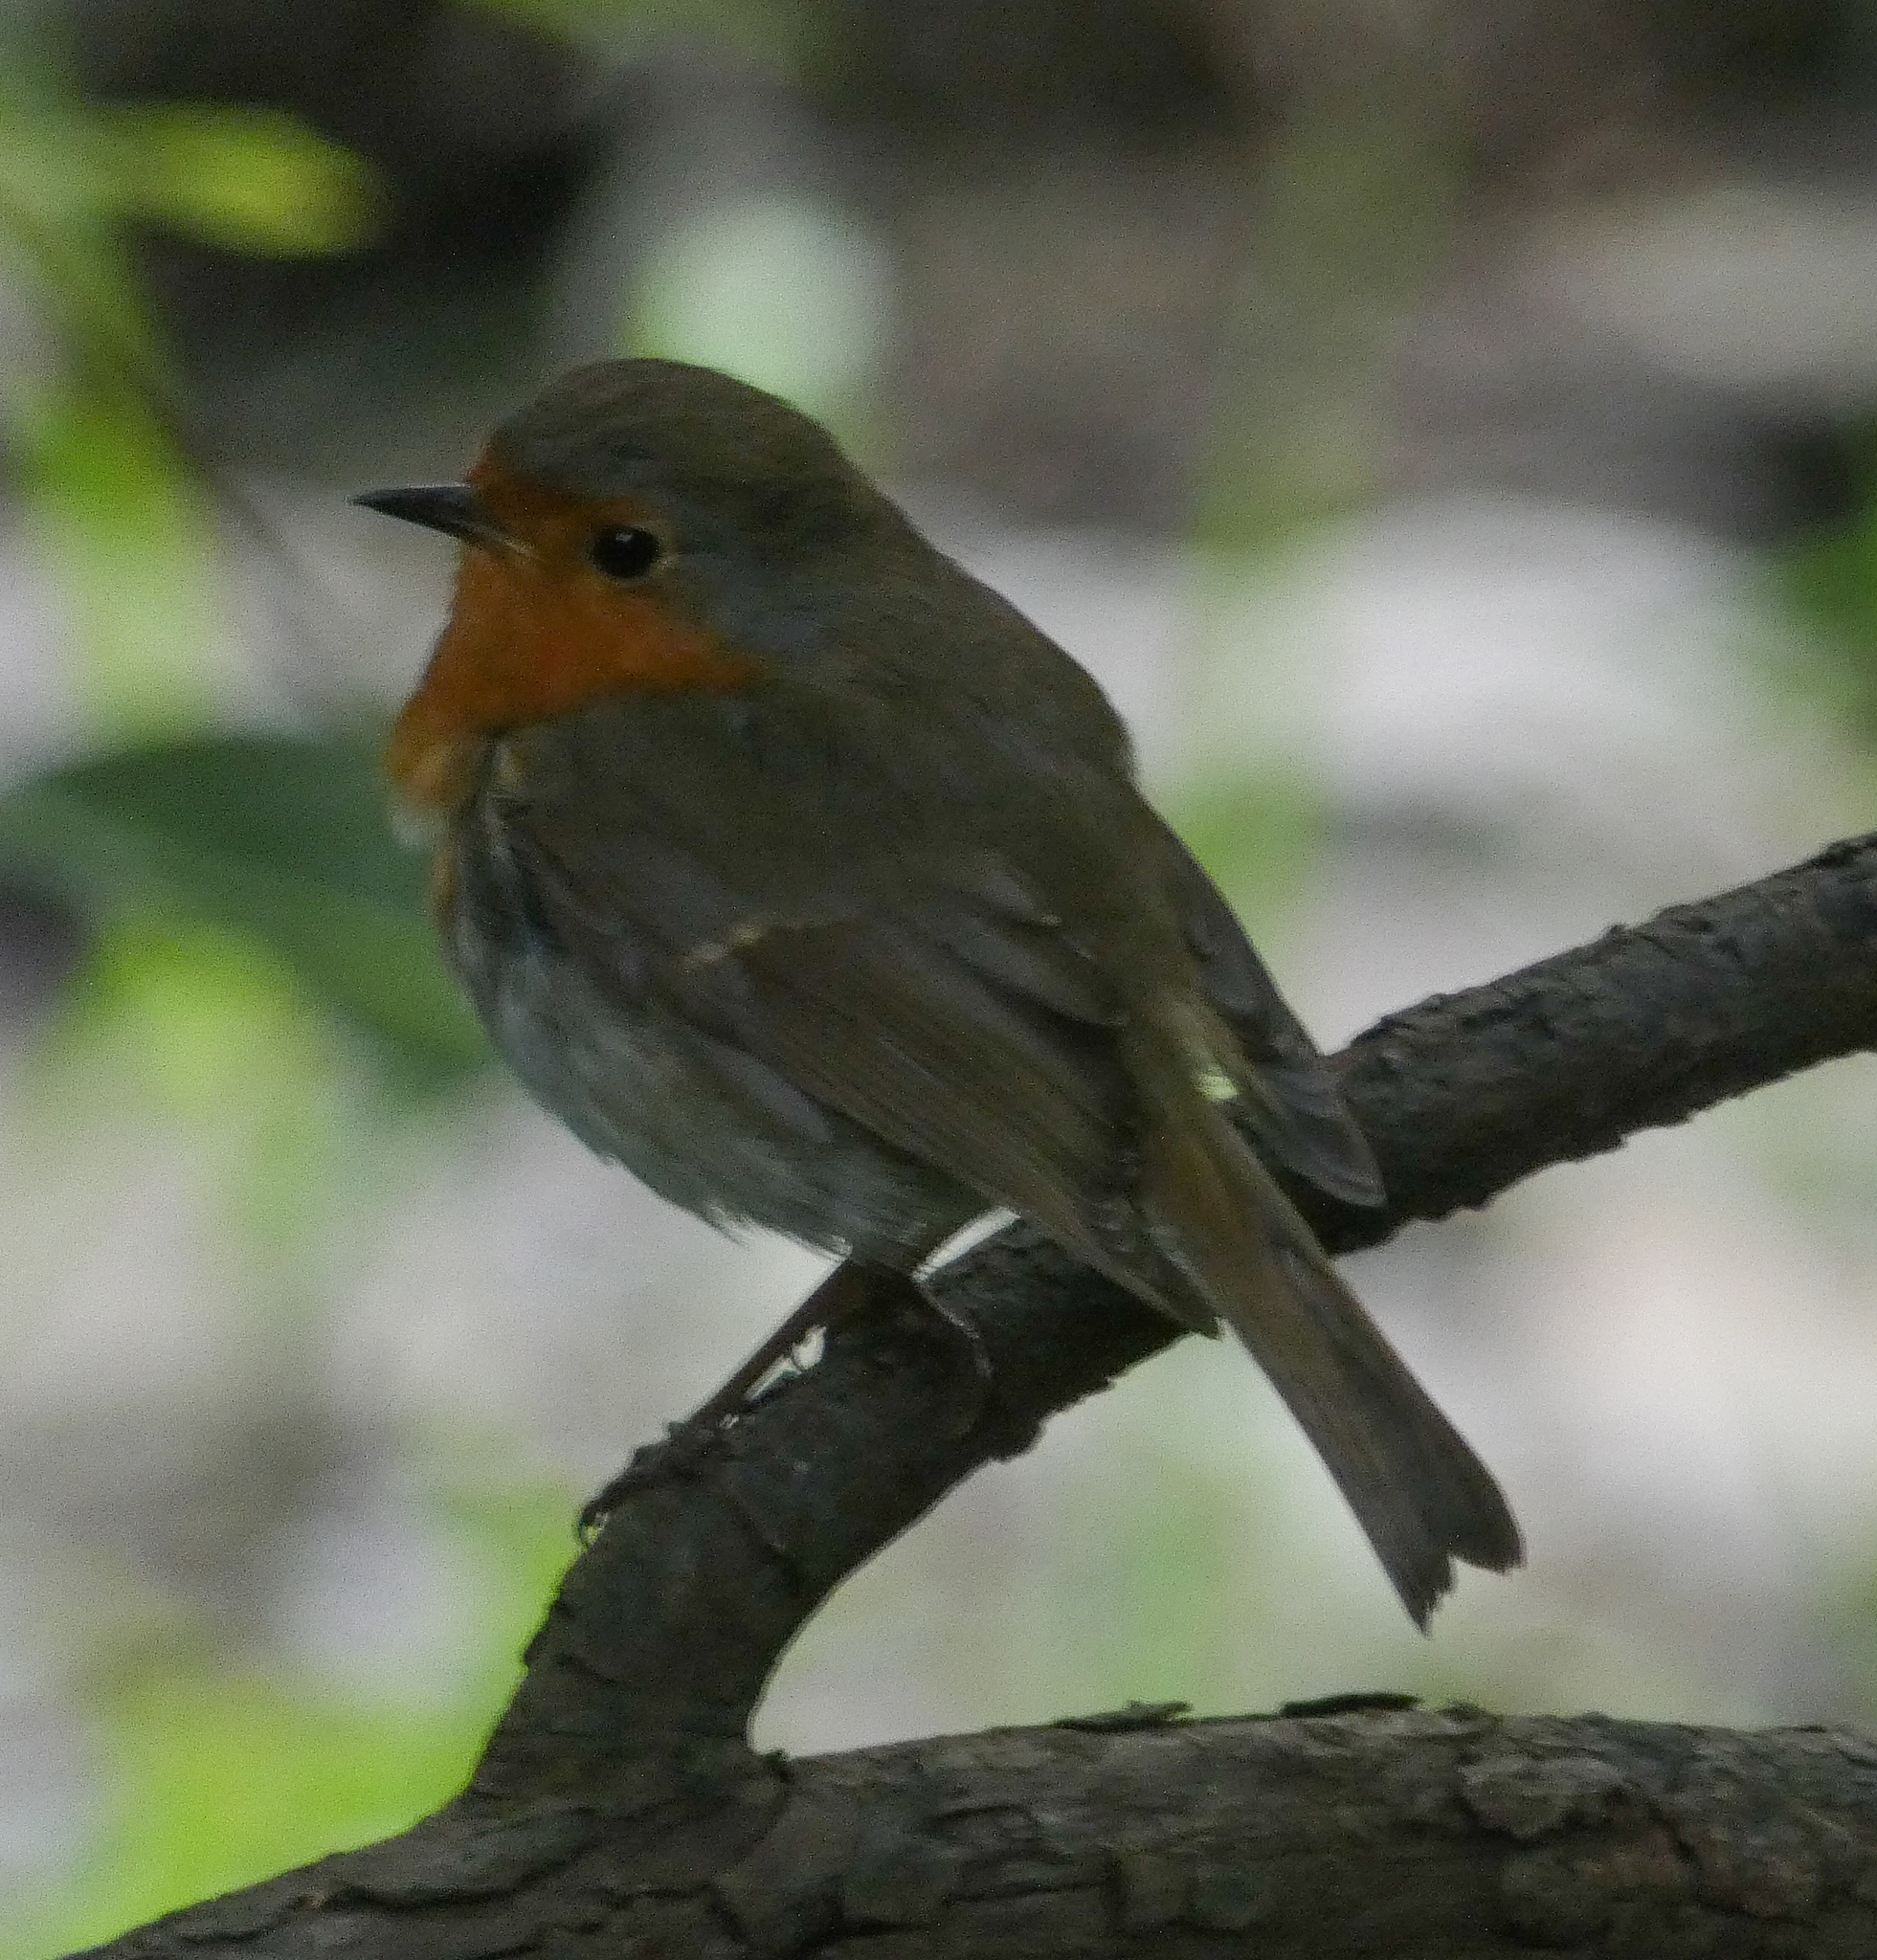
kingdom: Animalia
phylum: Chordata
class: Aves
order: Passeriformes
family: Muscicapidae
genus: Erithacus
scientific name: Erithacus rubecula
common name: European robin
